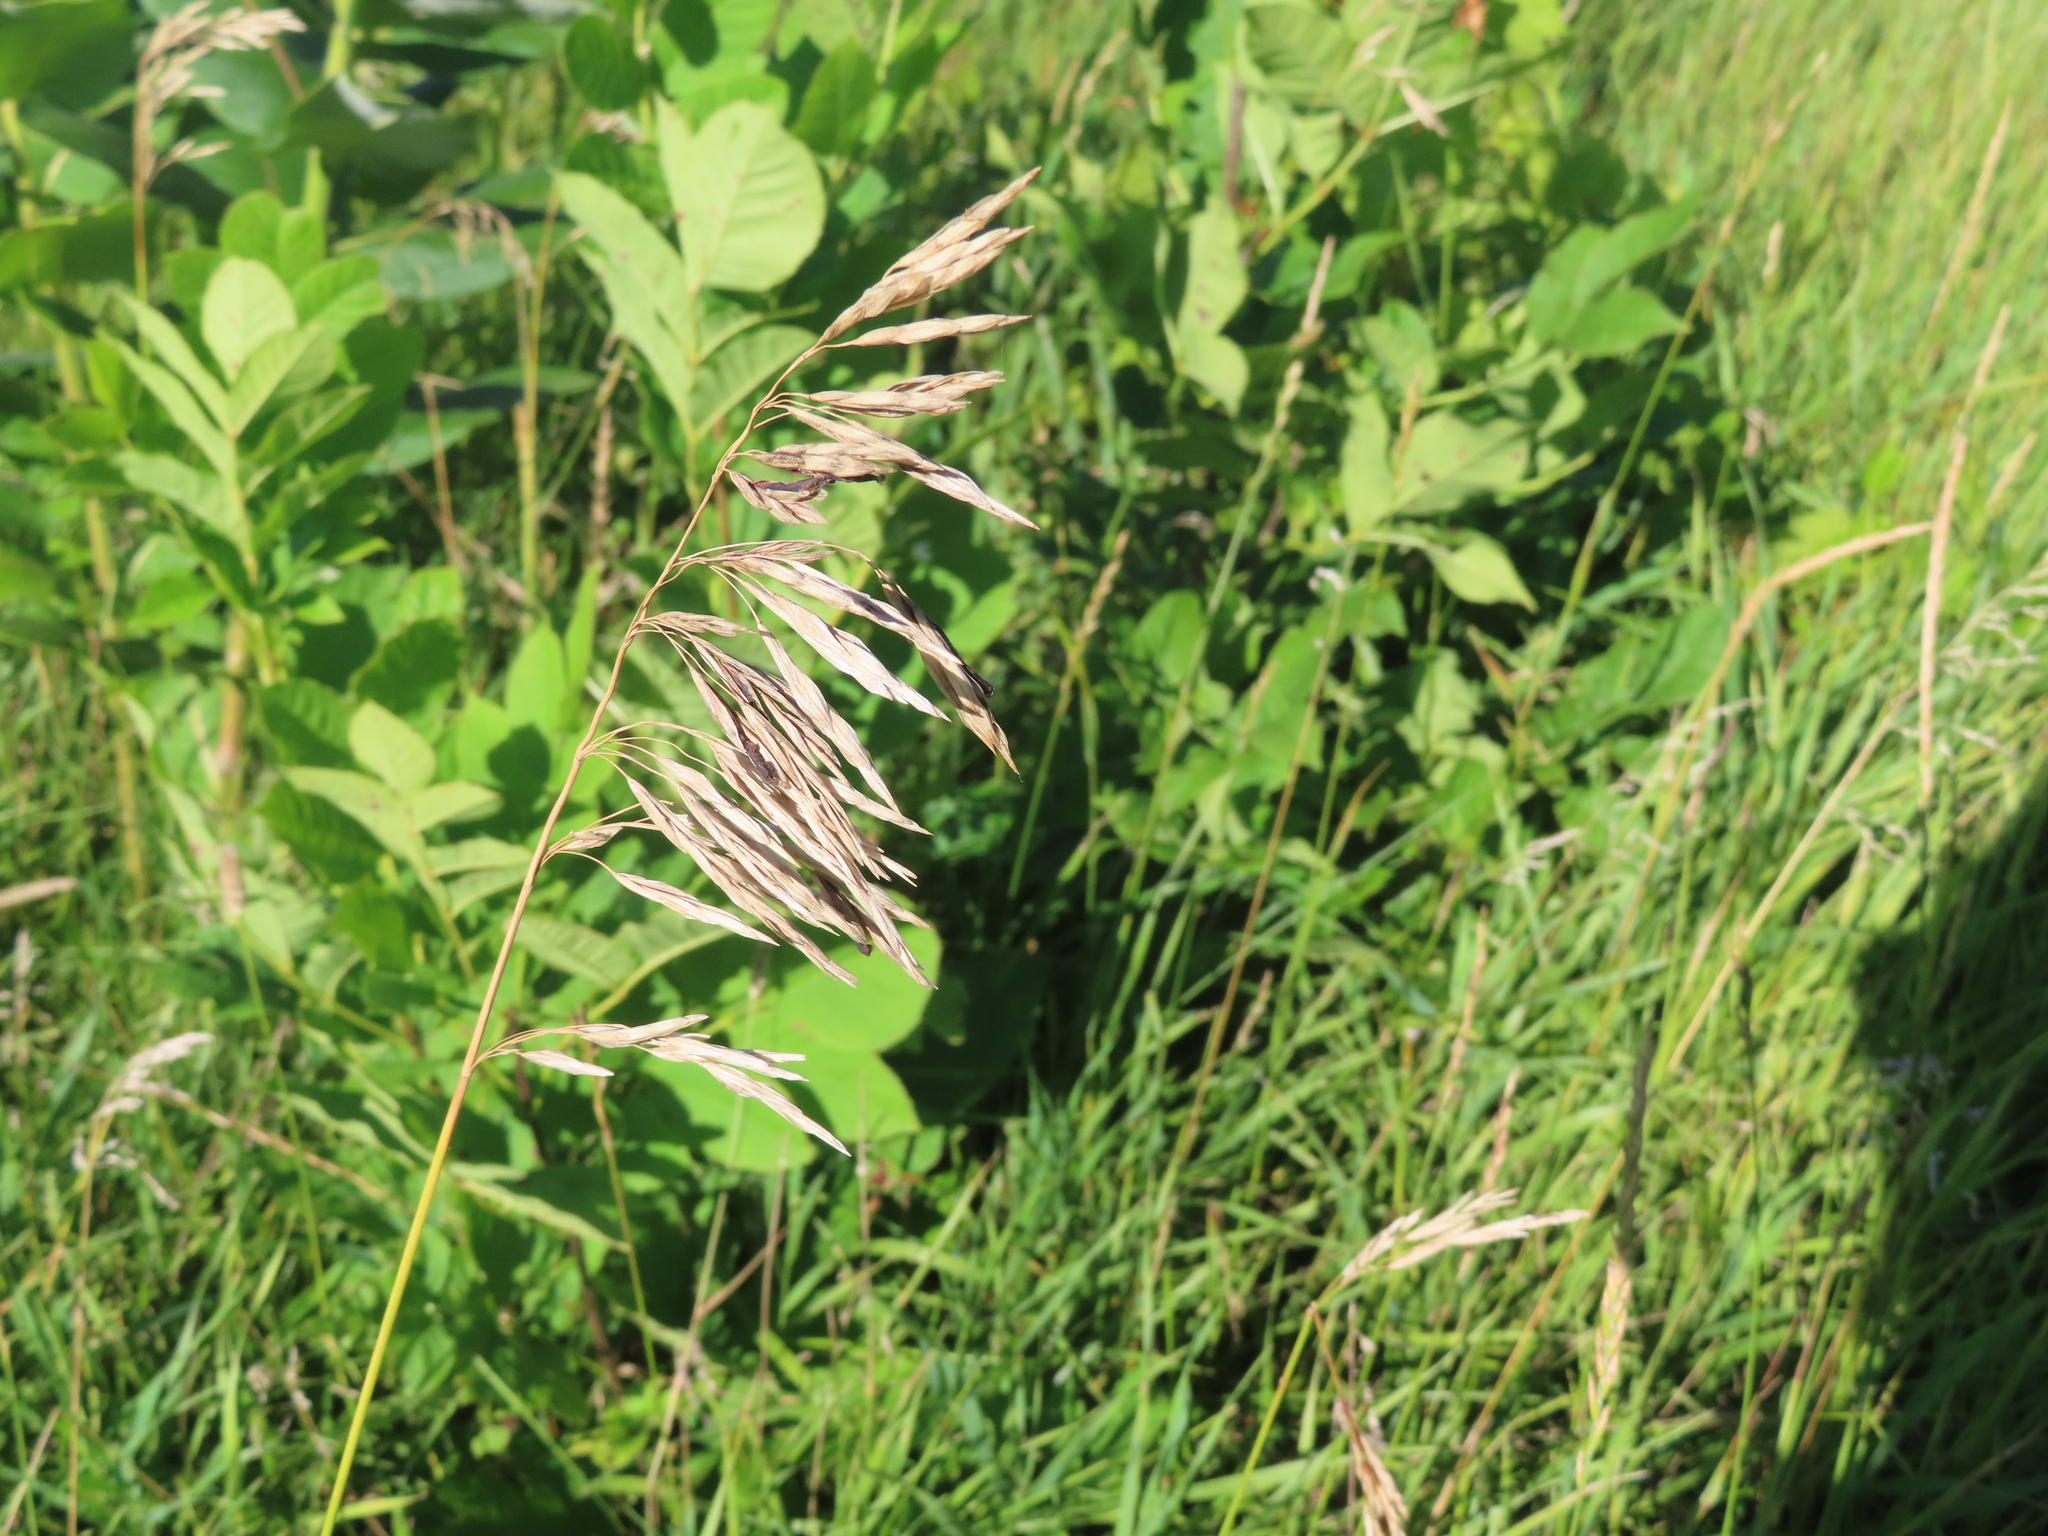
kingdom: Plantae
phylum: Tracheophyta
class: Liliopsida
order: Poales
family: Poaceae
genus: Bromus
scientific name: Bromus inermis
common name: Smooth brome
